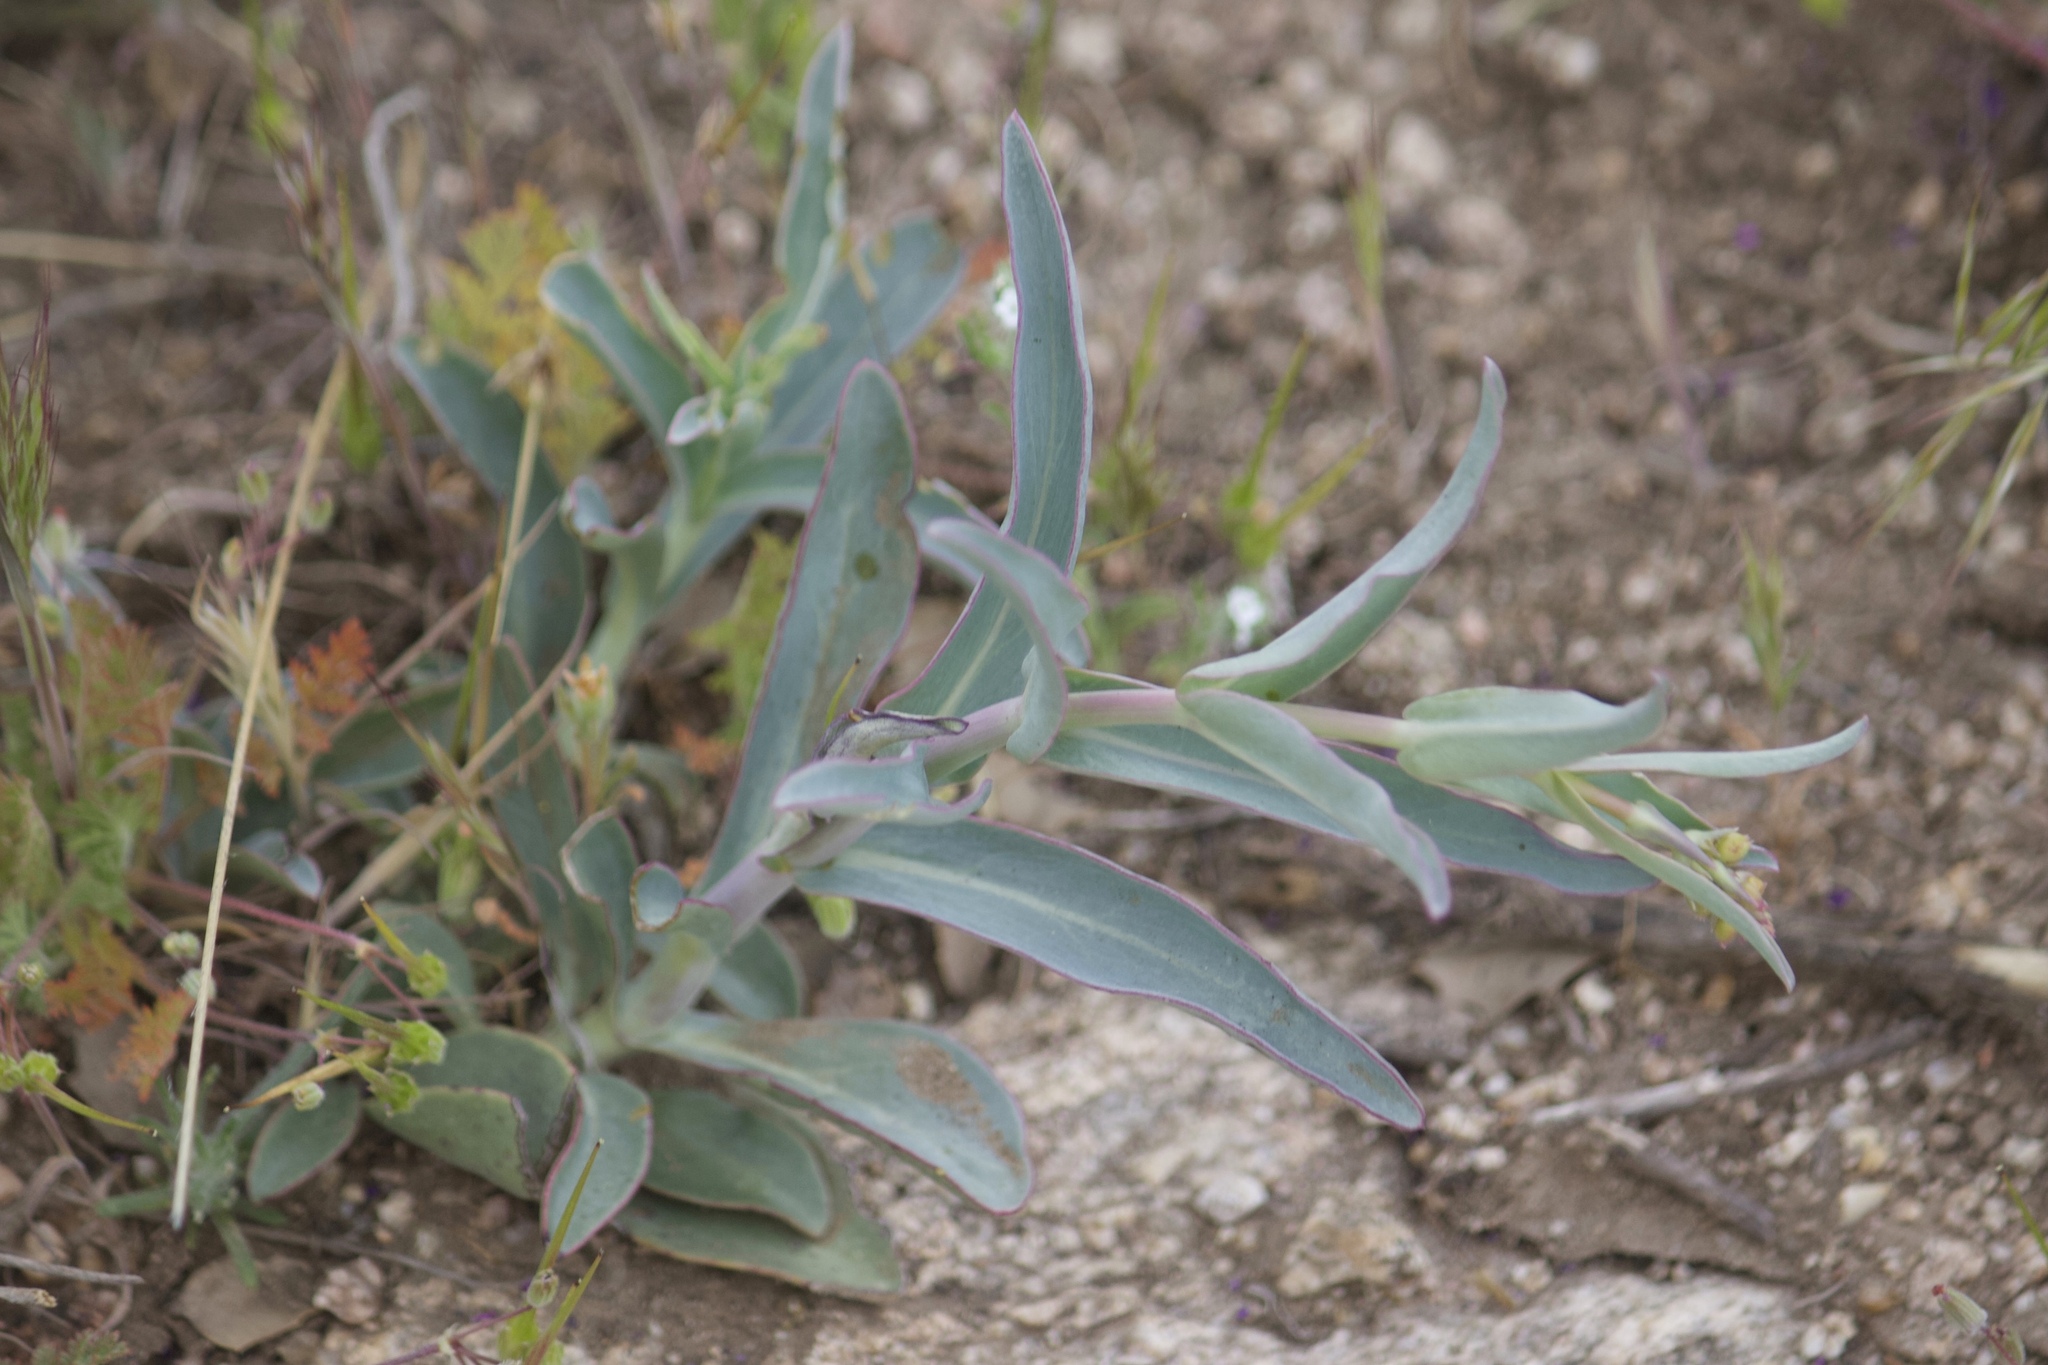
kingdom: Plantae
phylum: Tracheophyta
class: Magnoliopsida
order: Lamiales
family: Plantaginaceae
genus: Penstemon
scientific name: Penstemon centranthifolius
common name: Scarlet bugler
